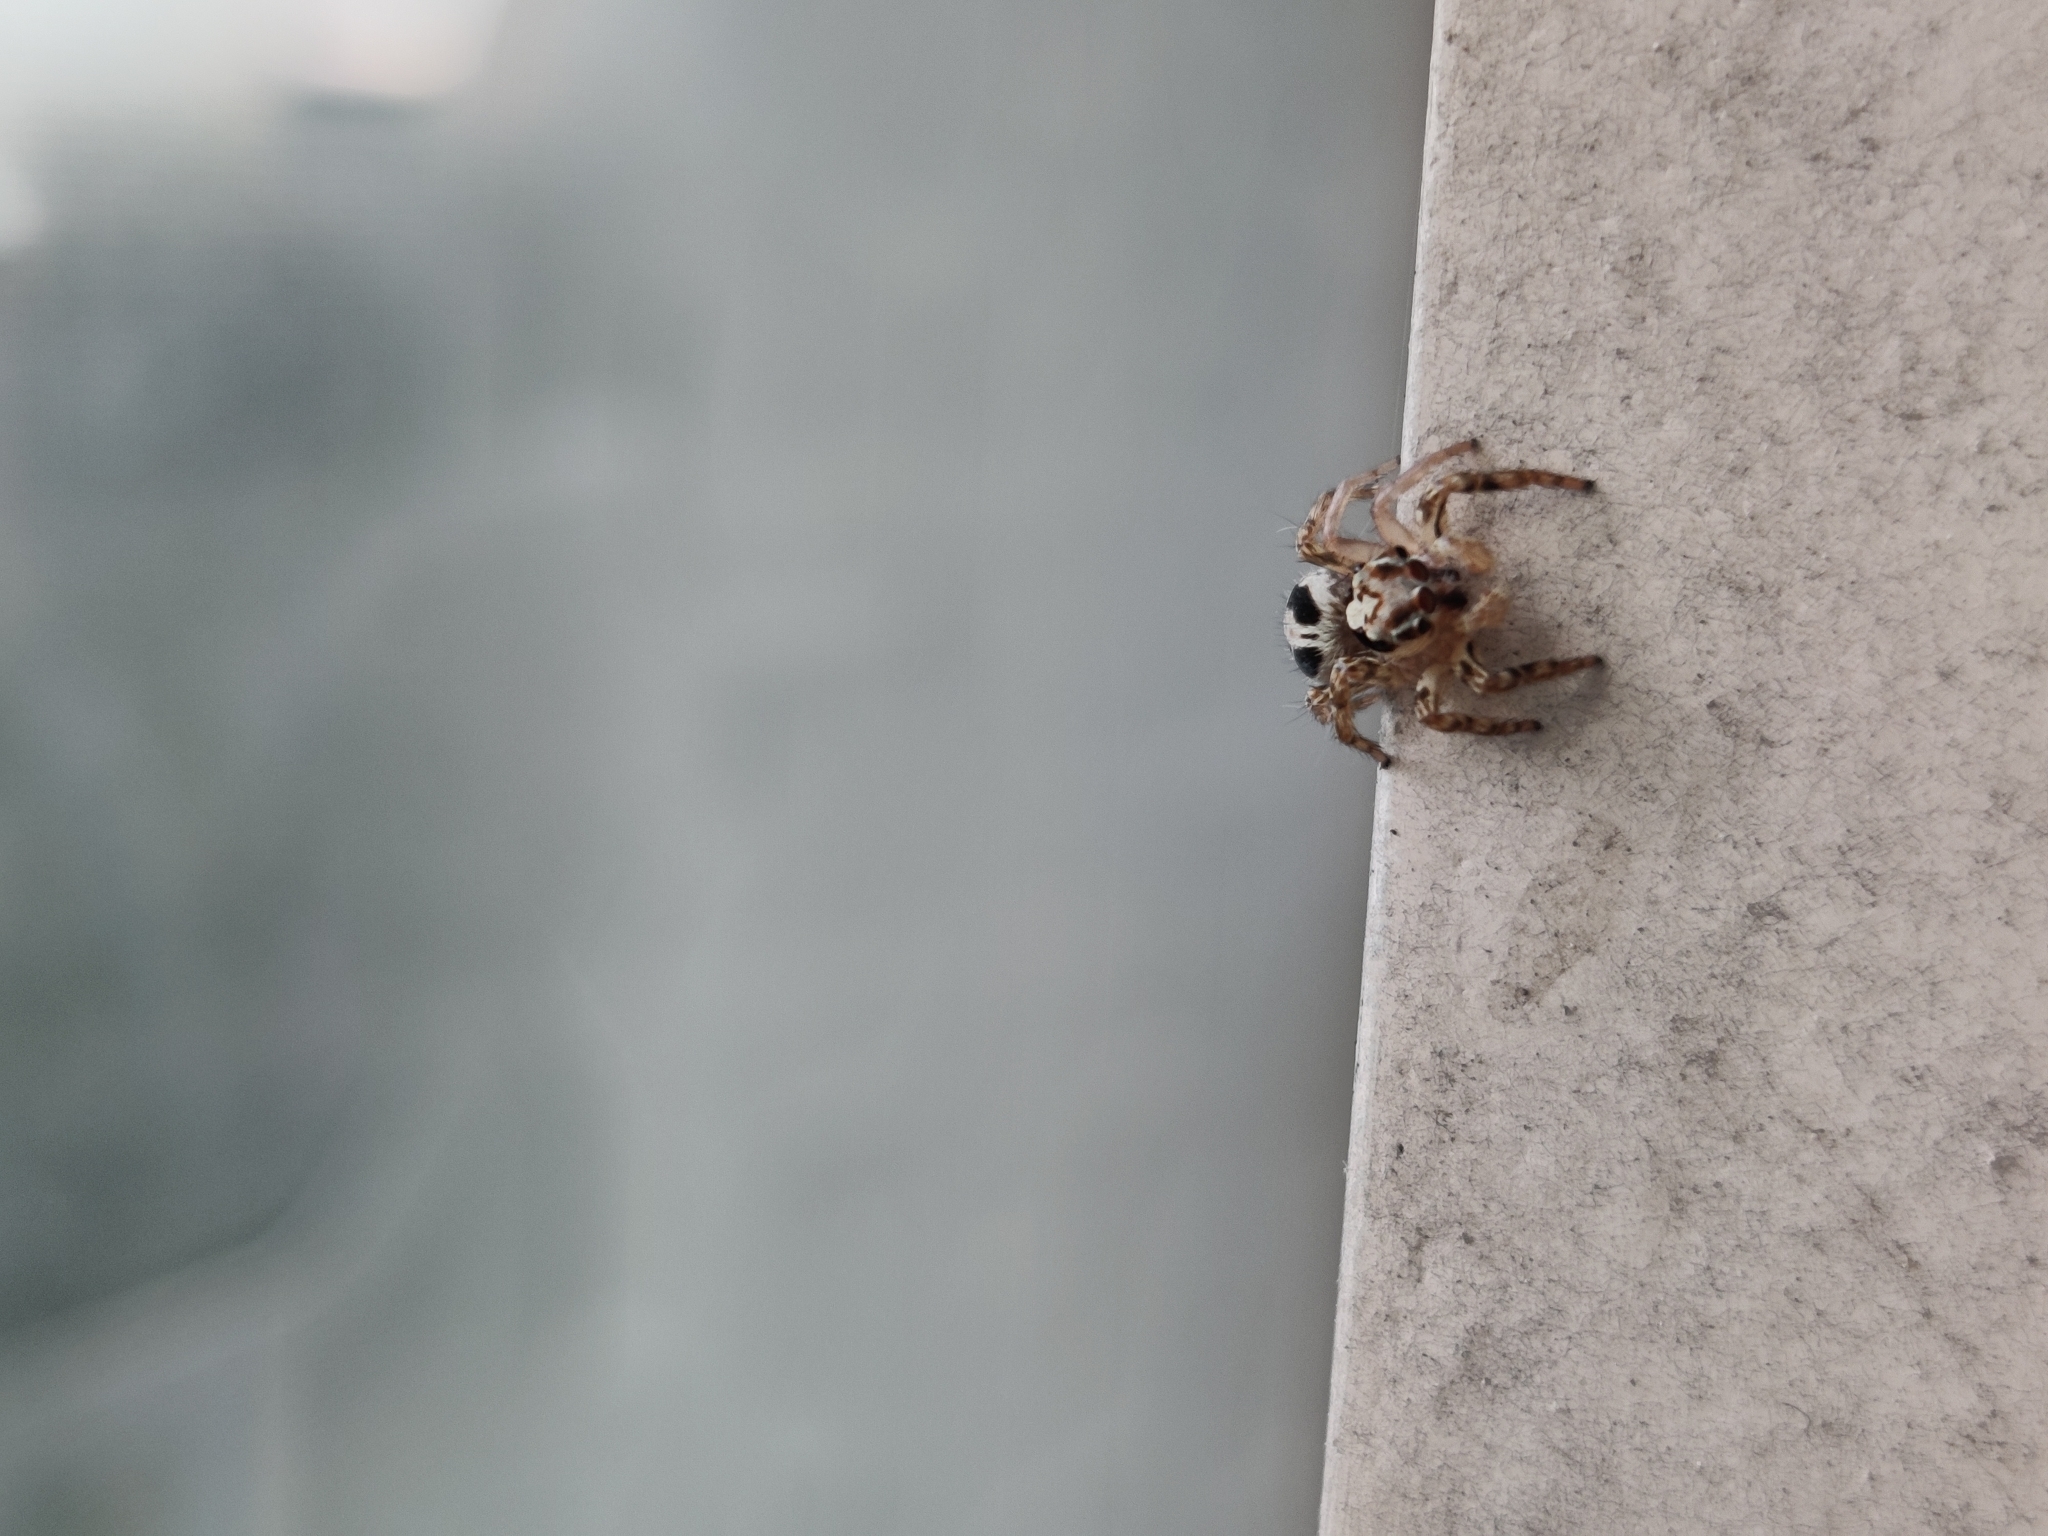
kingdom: Animalia
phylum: Arthropoda
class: Arachnida
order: Araneae
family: Salticidae
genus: Plexippus
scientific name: Plexippus paykulli
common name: Pantropical jumper
